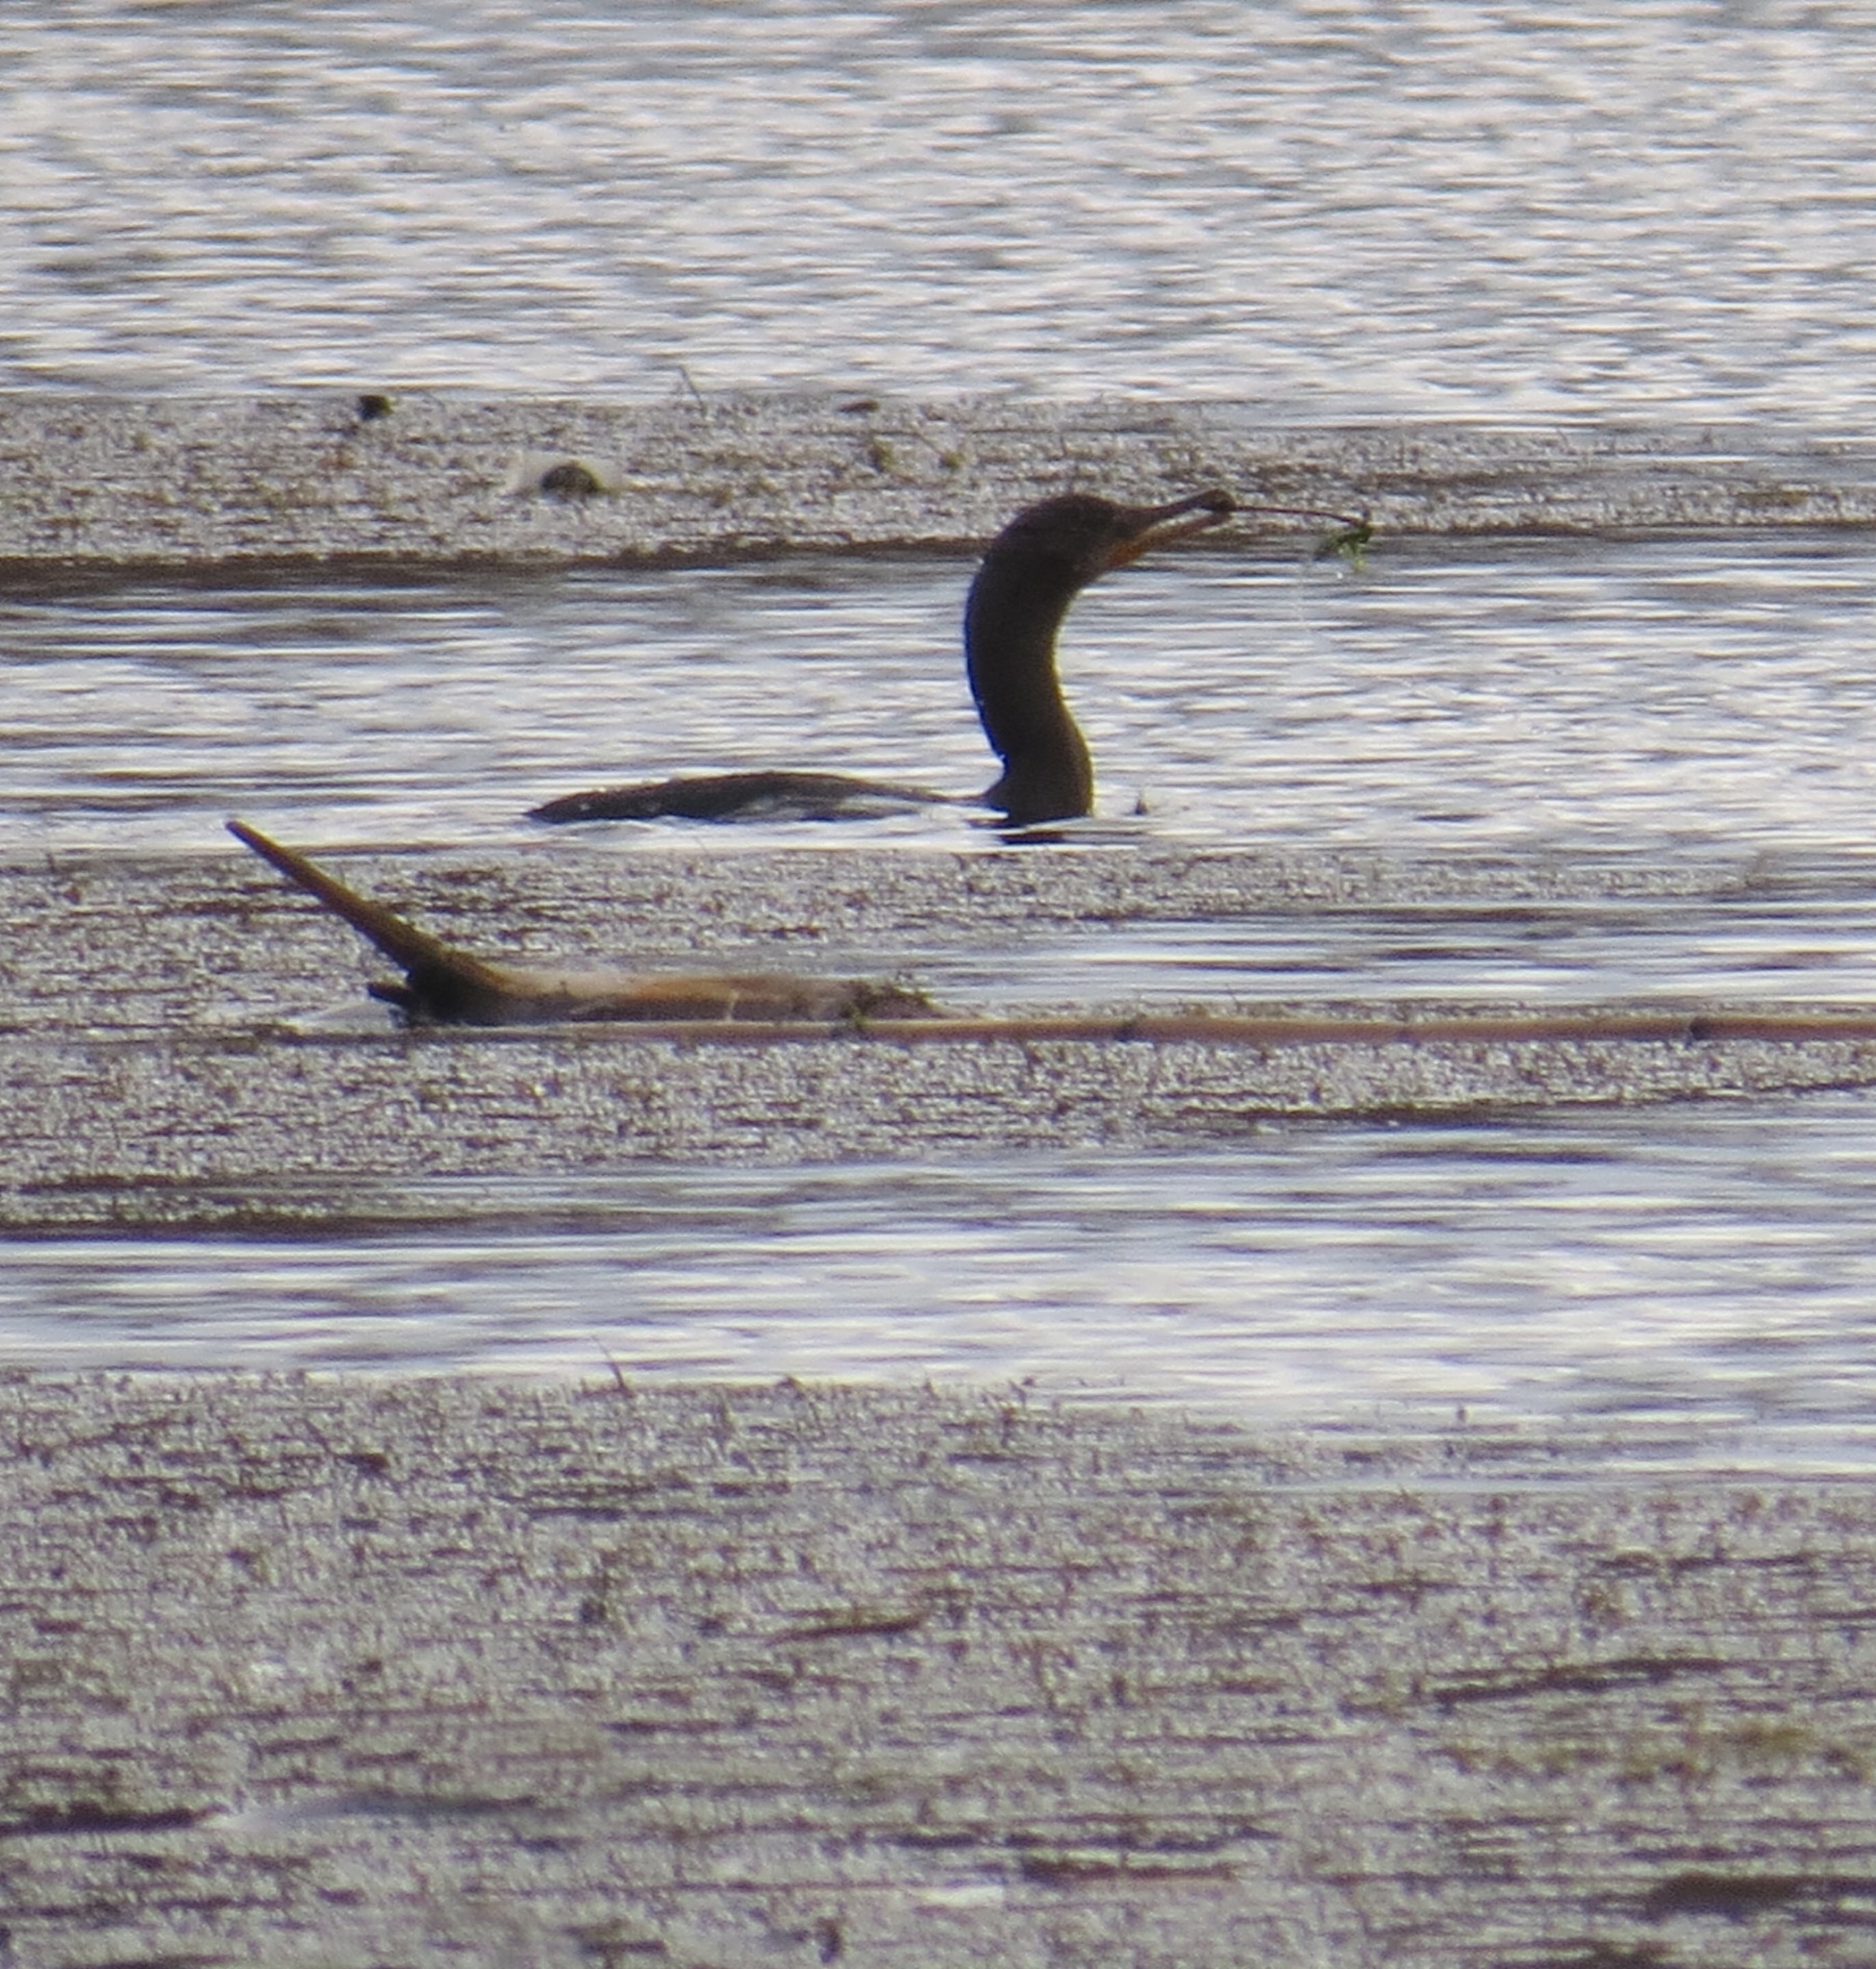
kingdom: Animalia
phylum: Chordata
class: Aves
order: Suliformes
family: Phalacrocoracidae
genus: Phalacrocorax
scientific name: Phalacrocorax auritus
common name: Double-crested cormorant
